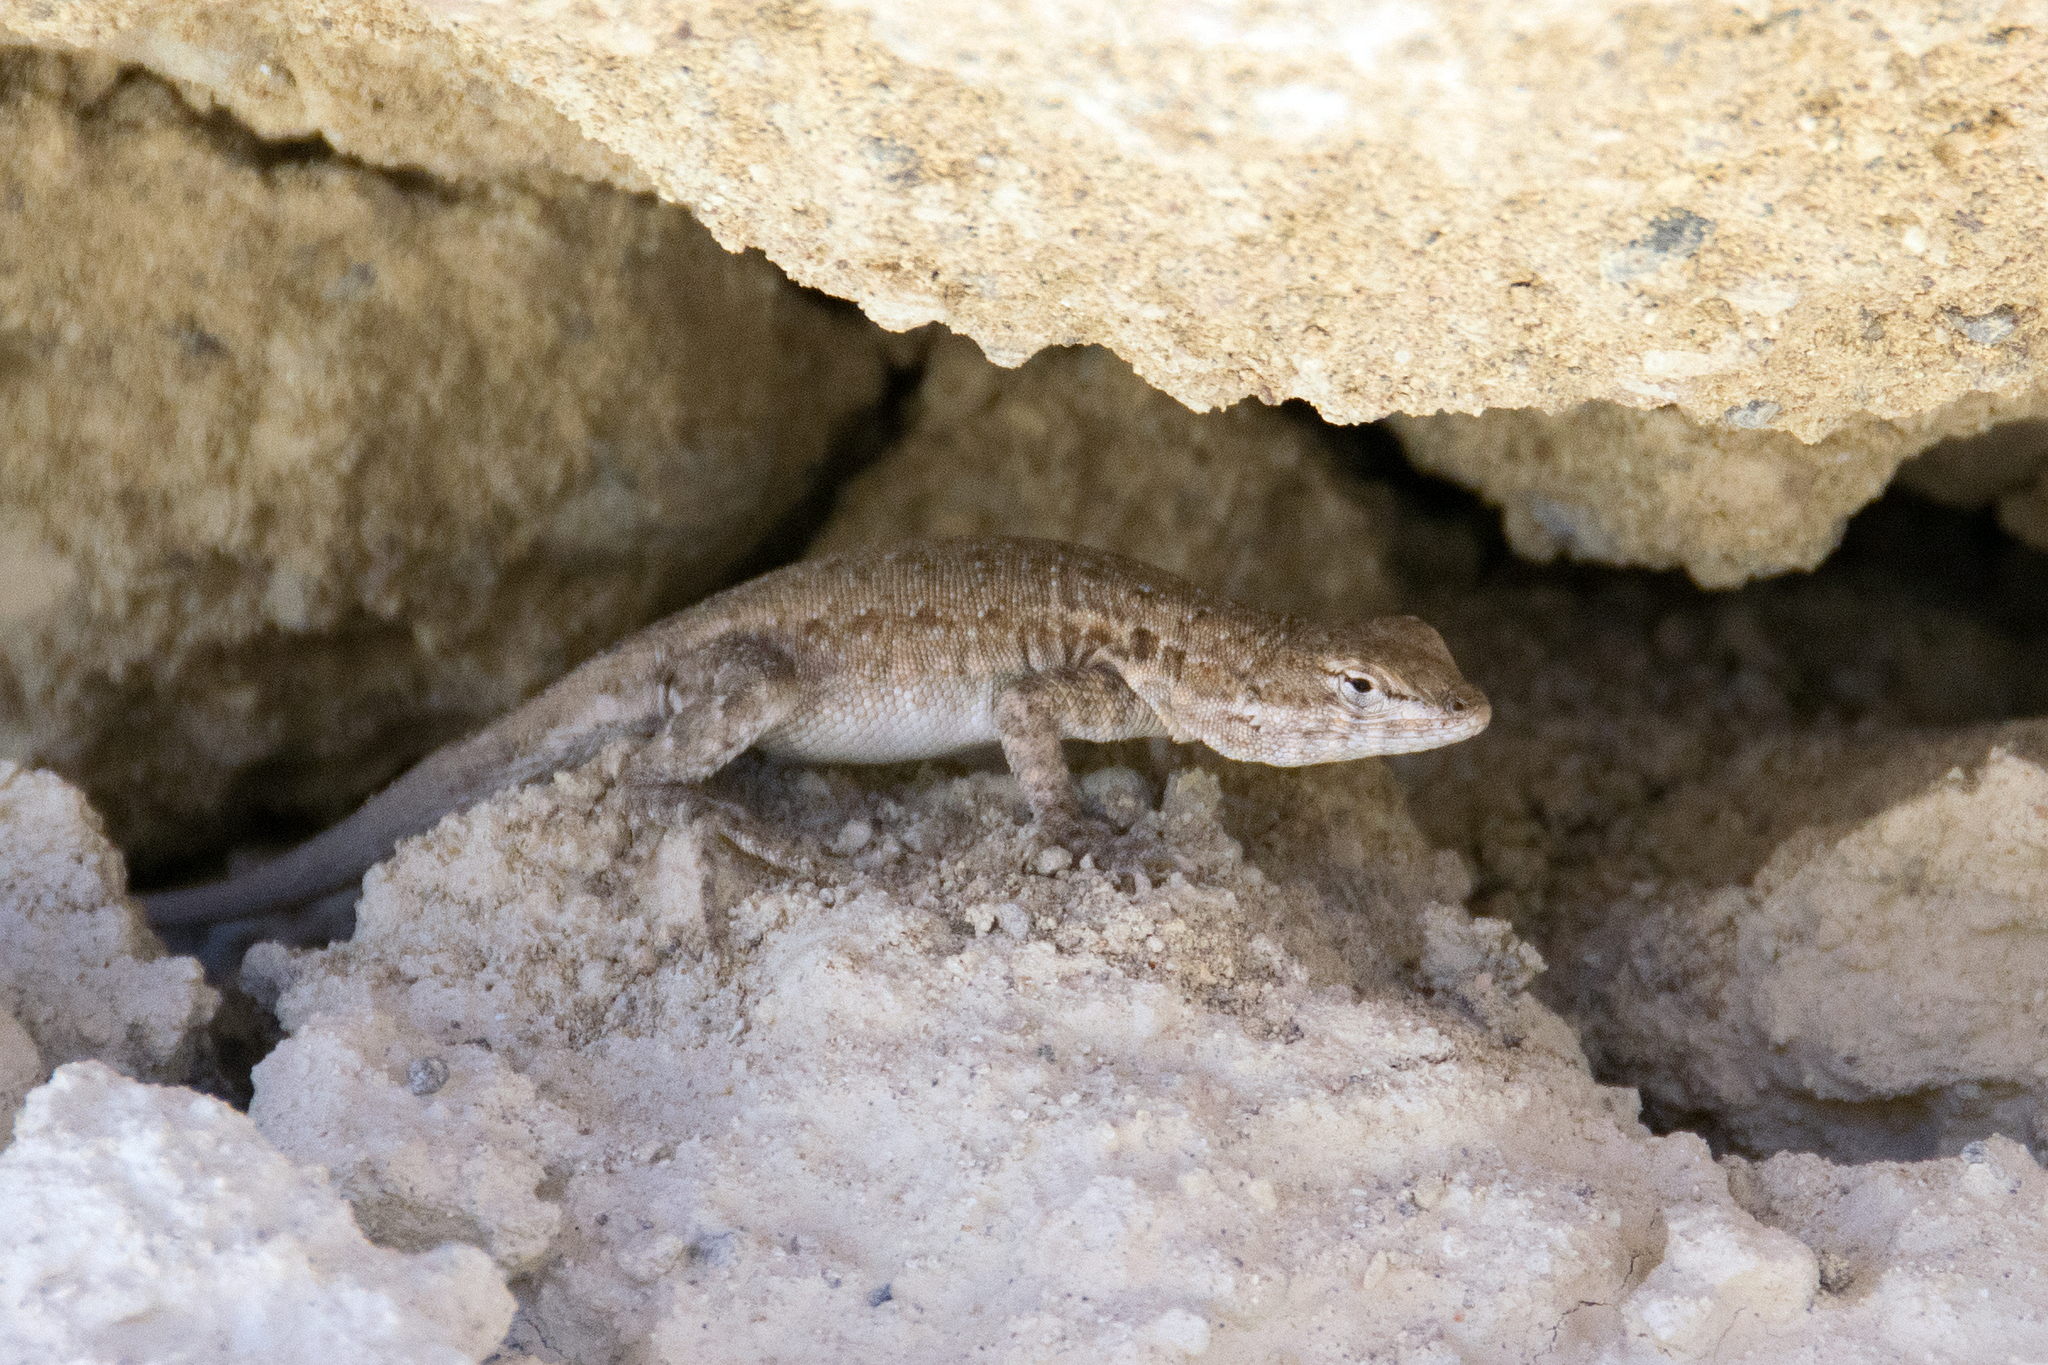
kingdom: Animalia
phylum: Chordata
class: Squamata
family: Phrynosomatidae
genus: Uta
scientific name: Uta stansburiana
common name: Side-blotched lizard
